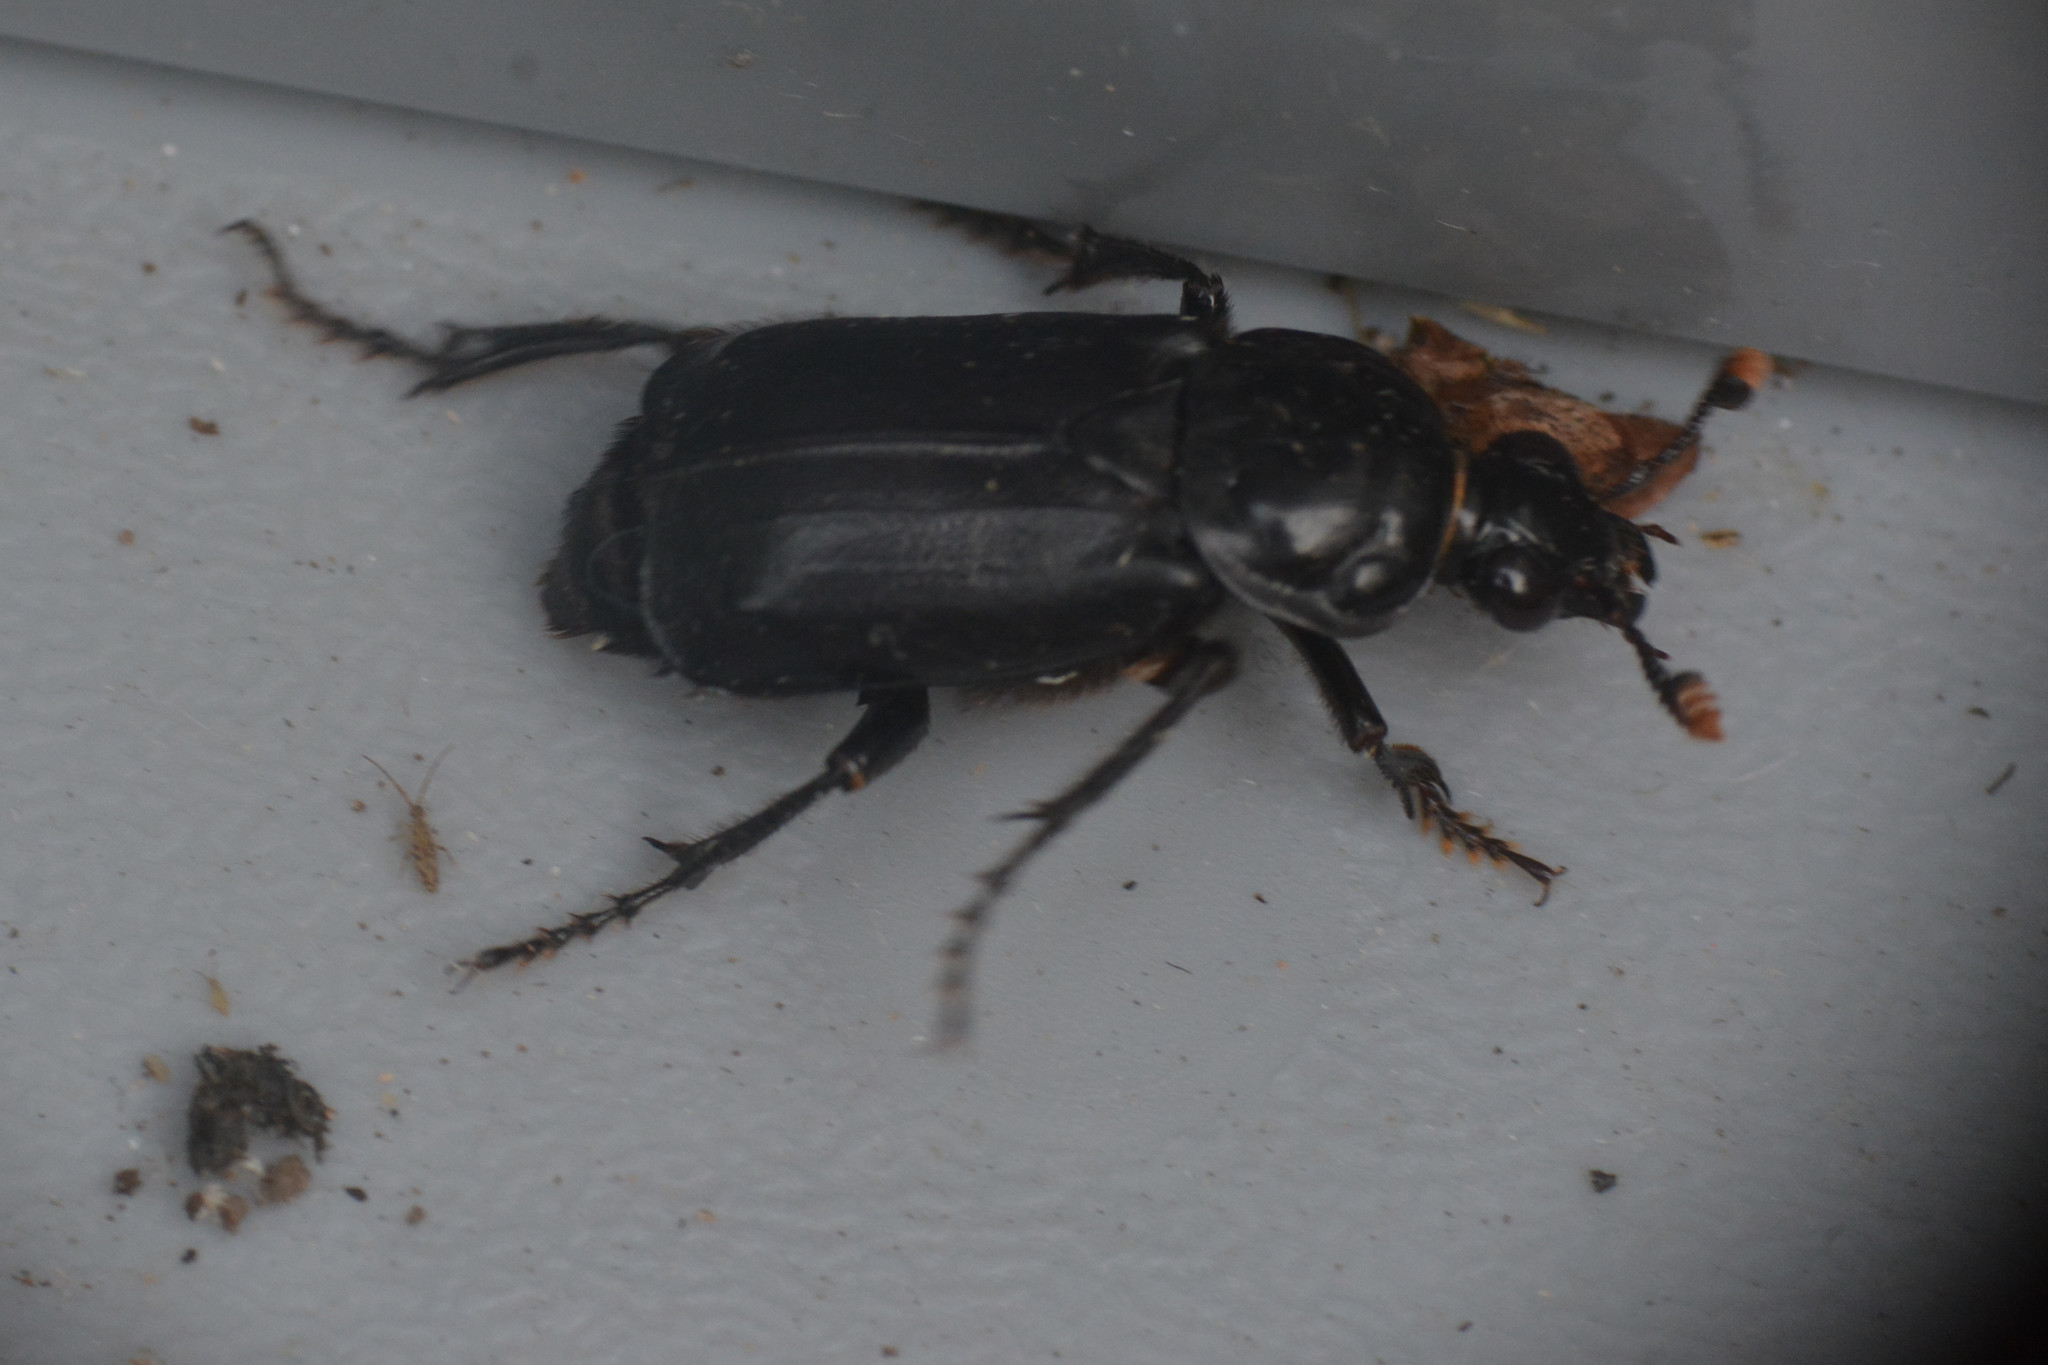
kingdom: Animalia
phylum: Arthropoda
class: Insecta
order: Coleoptera
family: Staphylinidae
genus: Nicrophorus
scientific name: Nicrophorus humator
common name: Black sexton beetle
